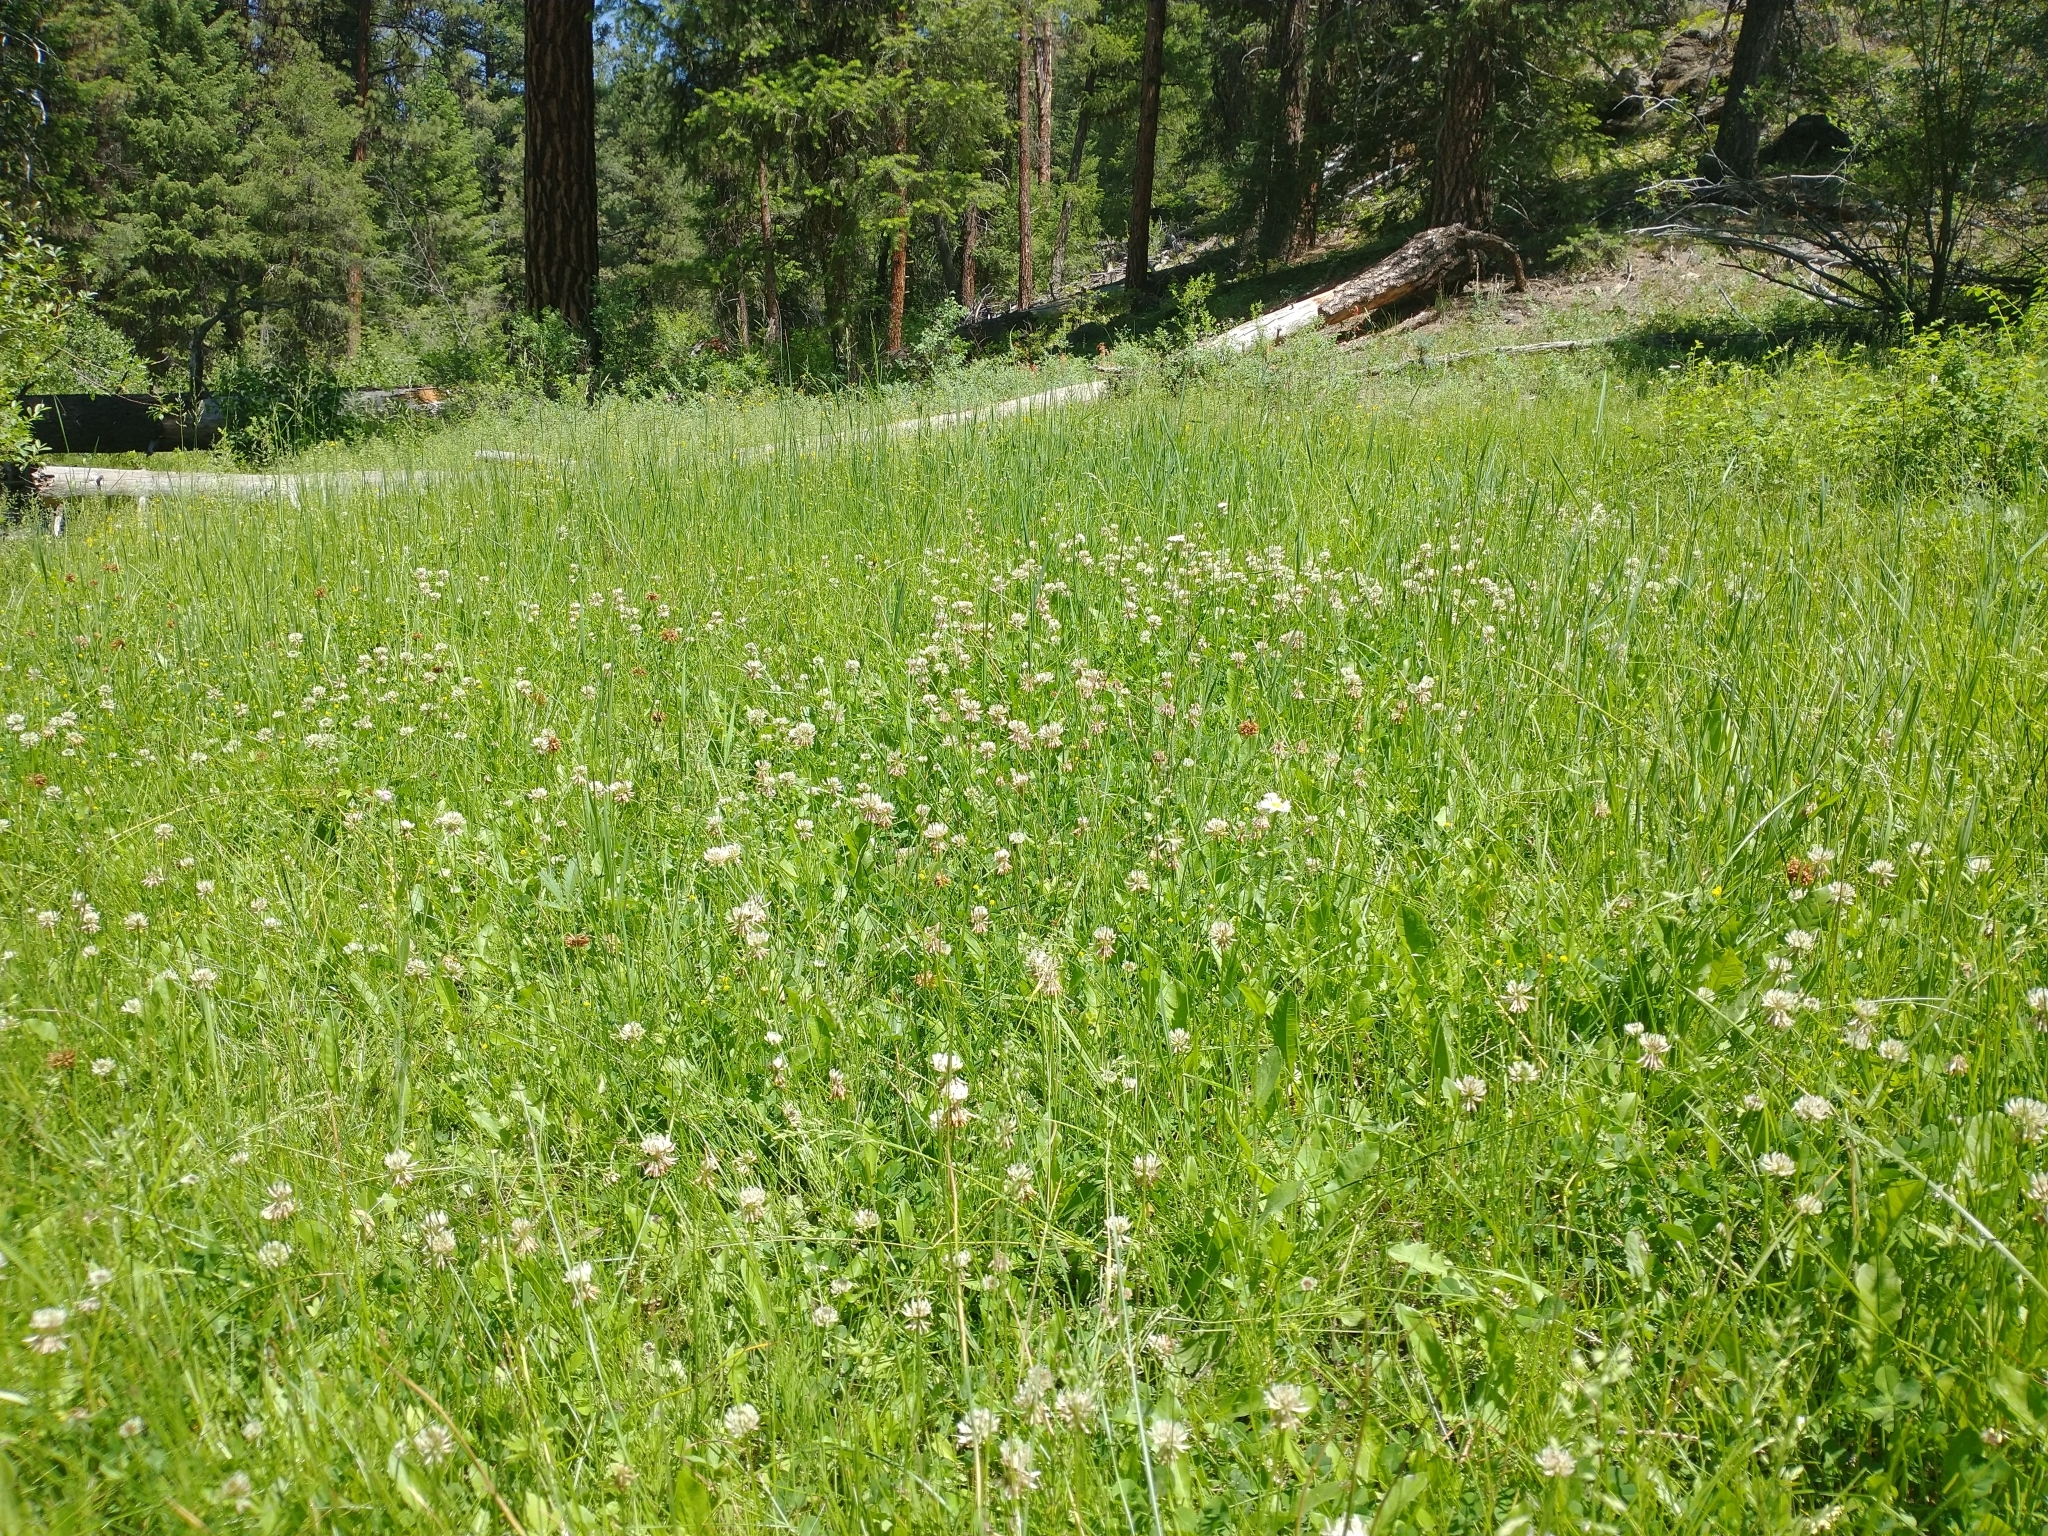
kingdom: Plantae
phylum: Tracheophyta
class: Magnoliopsida
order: Fabales
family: Fabaceae
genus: Trifolium
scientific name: Trifolium repens
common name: White clover
